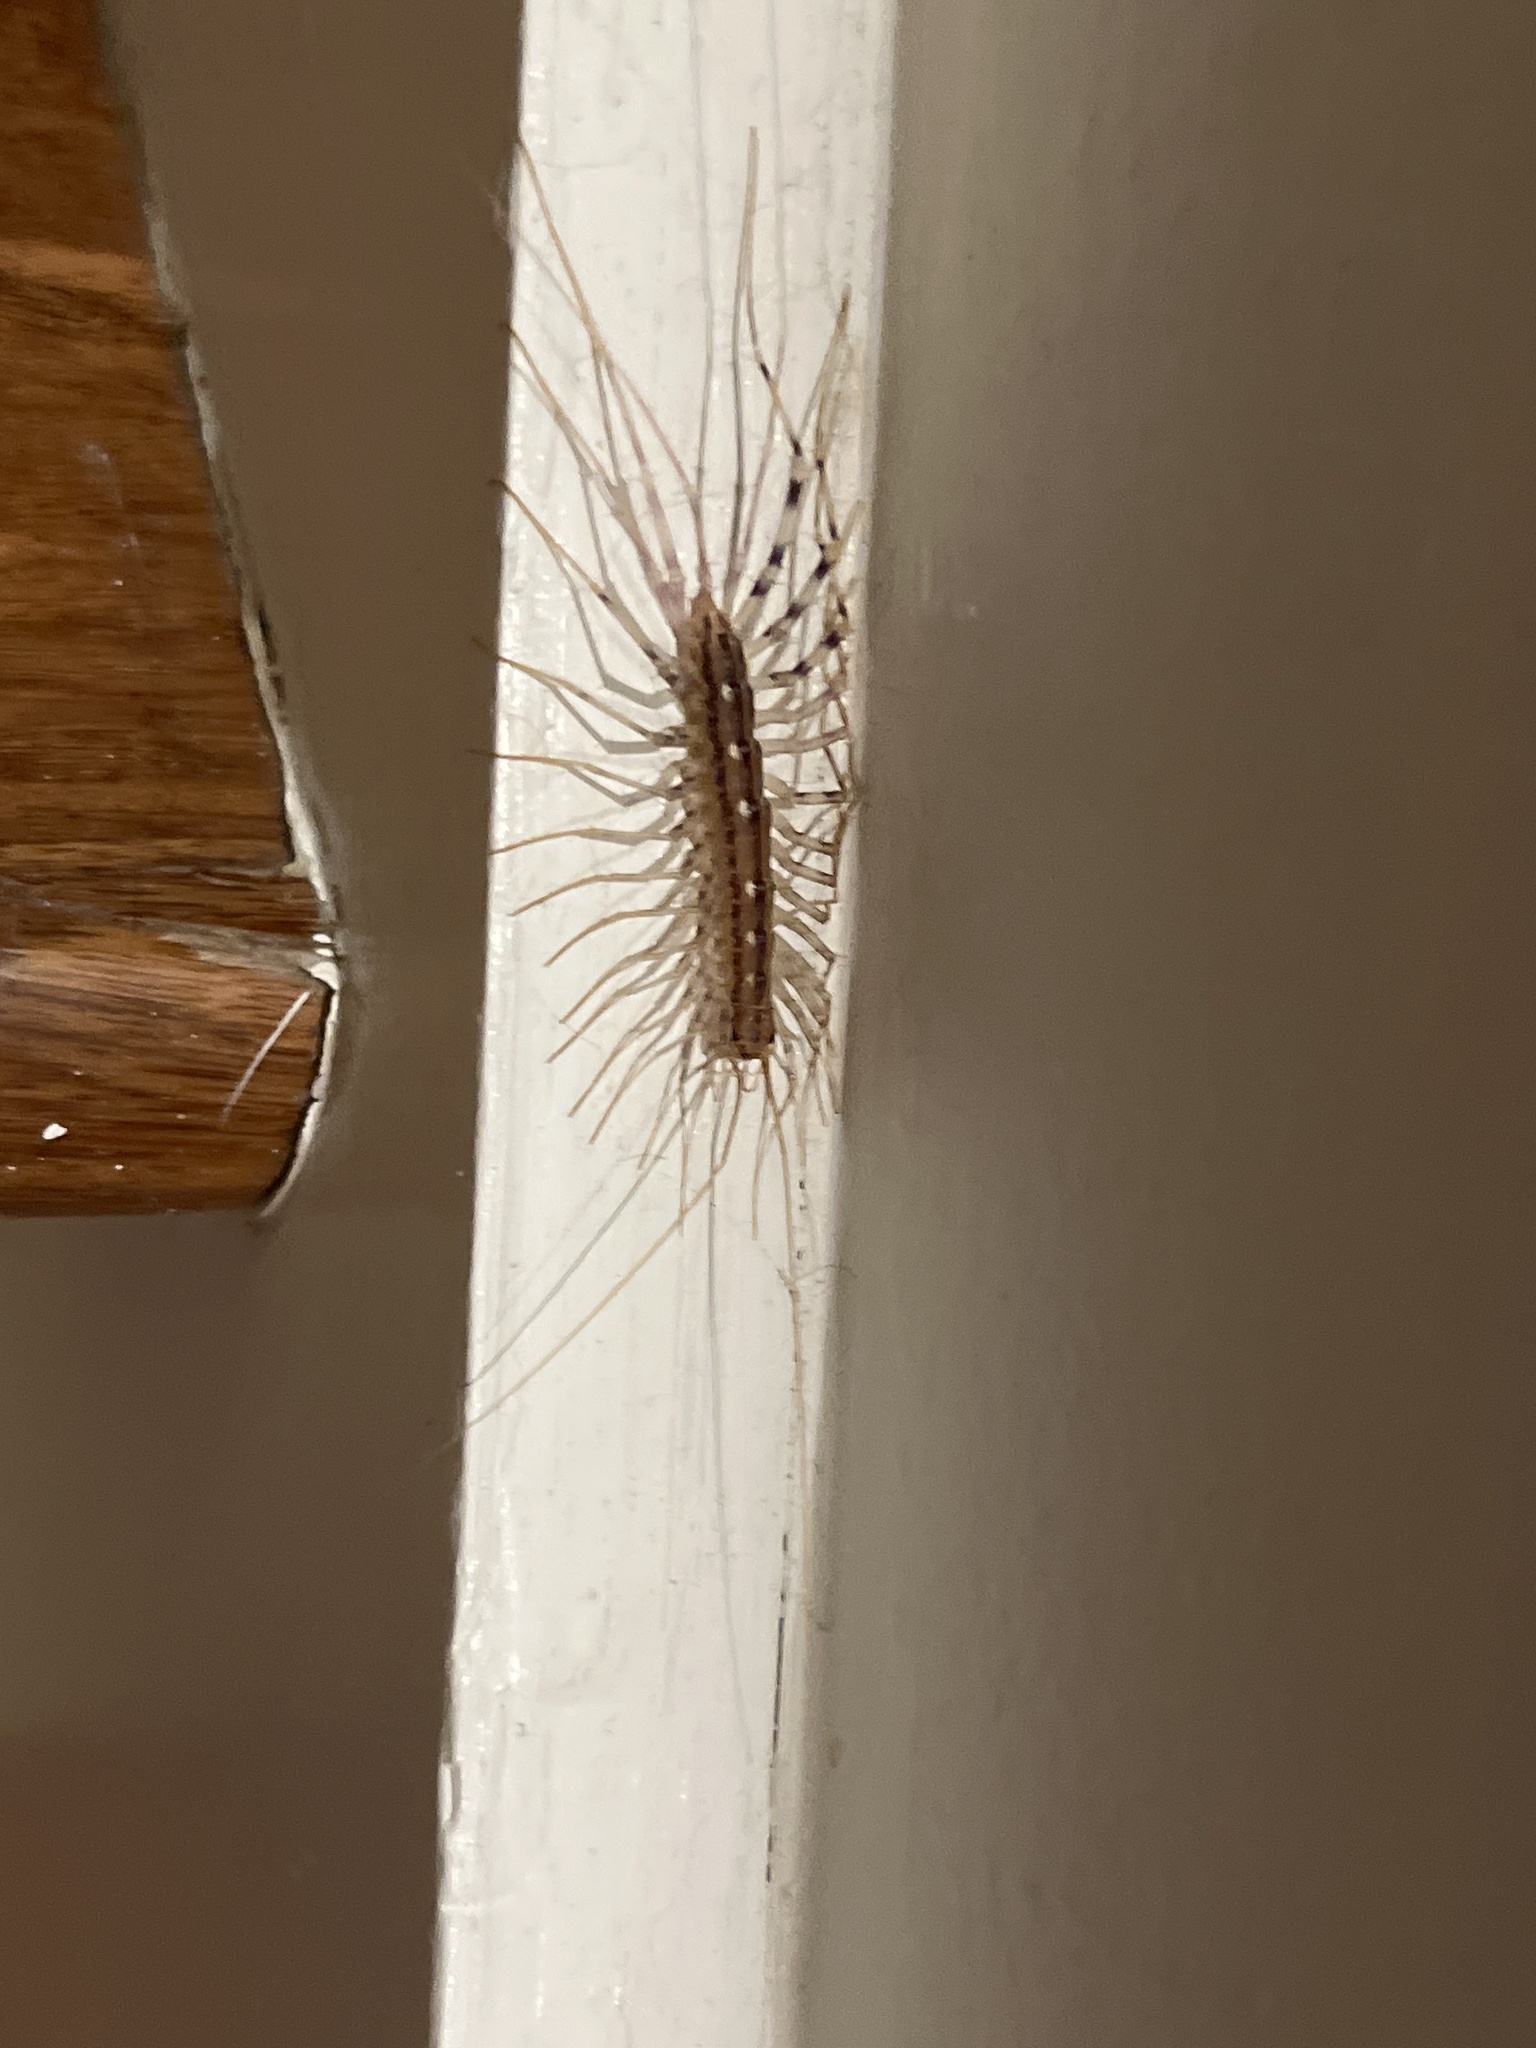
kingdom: Animalia
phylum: Arthropoda
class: Chilopoda
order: Scutigeromorpha
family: Scutigeridae
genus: Scutigera
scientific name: Scutigera coleoptrata
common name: House centipede
